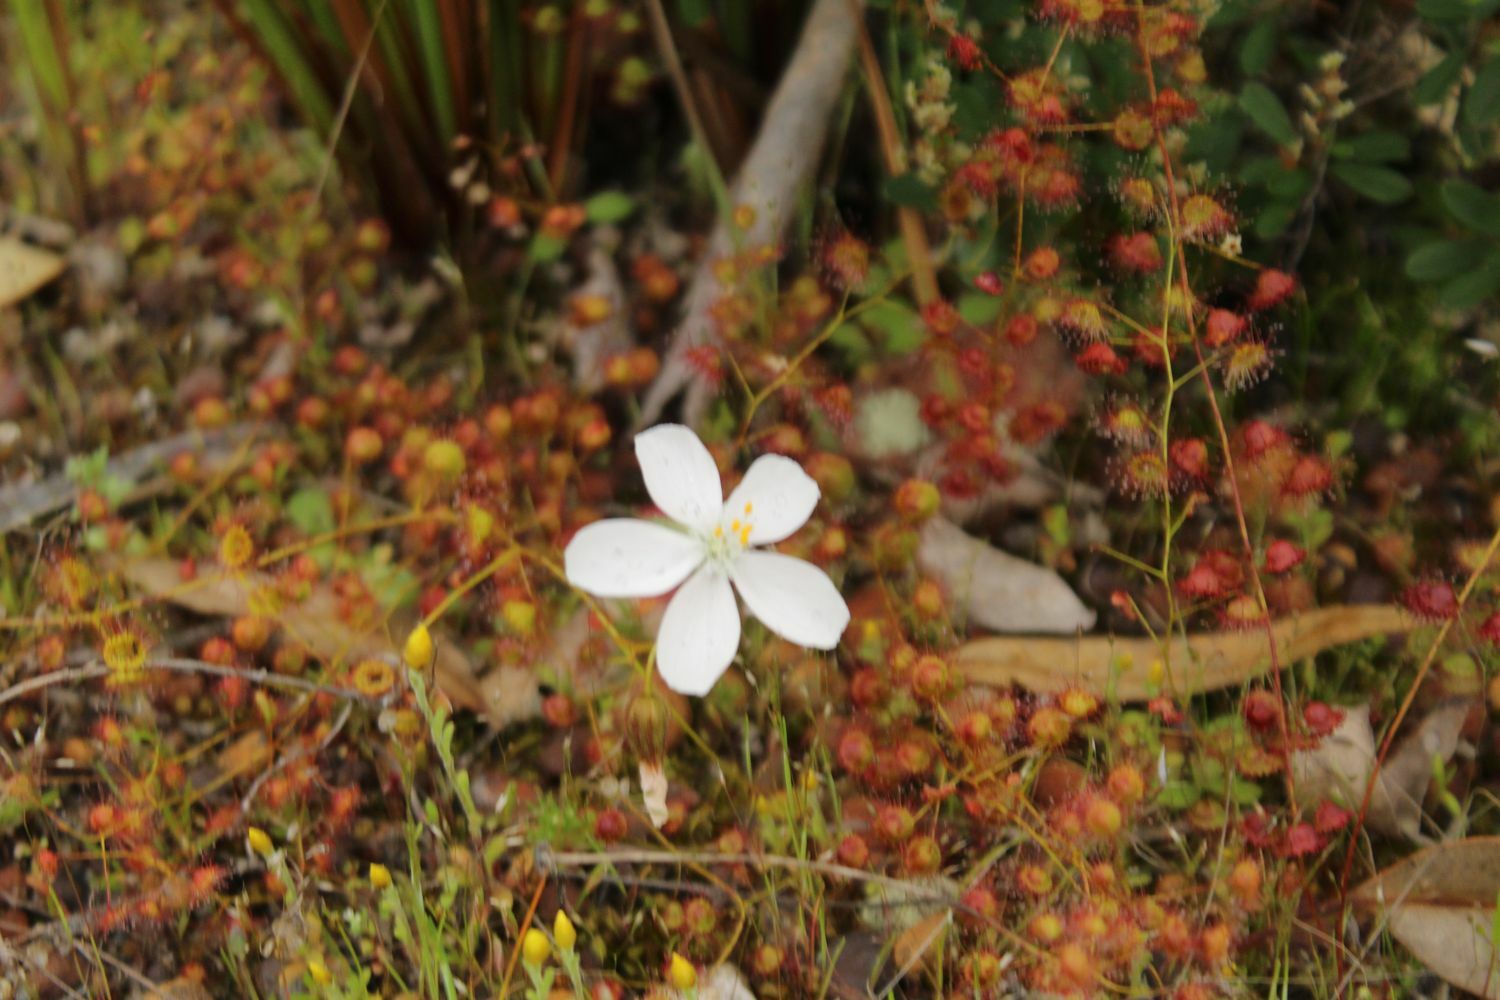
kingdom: Plantae
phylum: Tracheophyta
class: Magnoliopsida
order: Caryophyllales
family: Droseraceae
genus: Drosera
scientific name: Drosera macrantha
